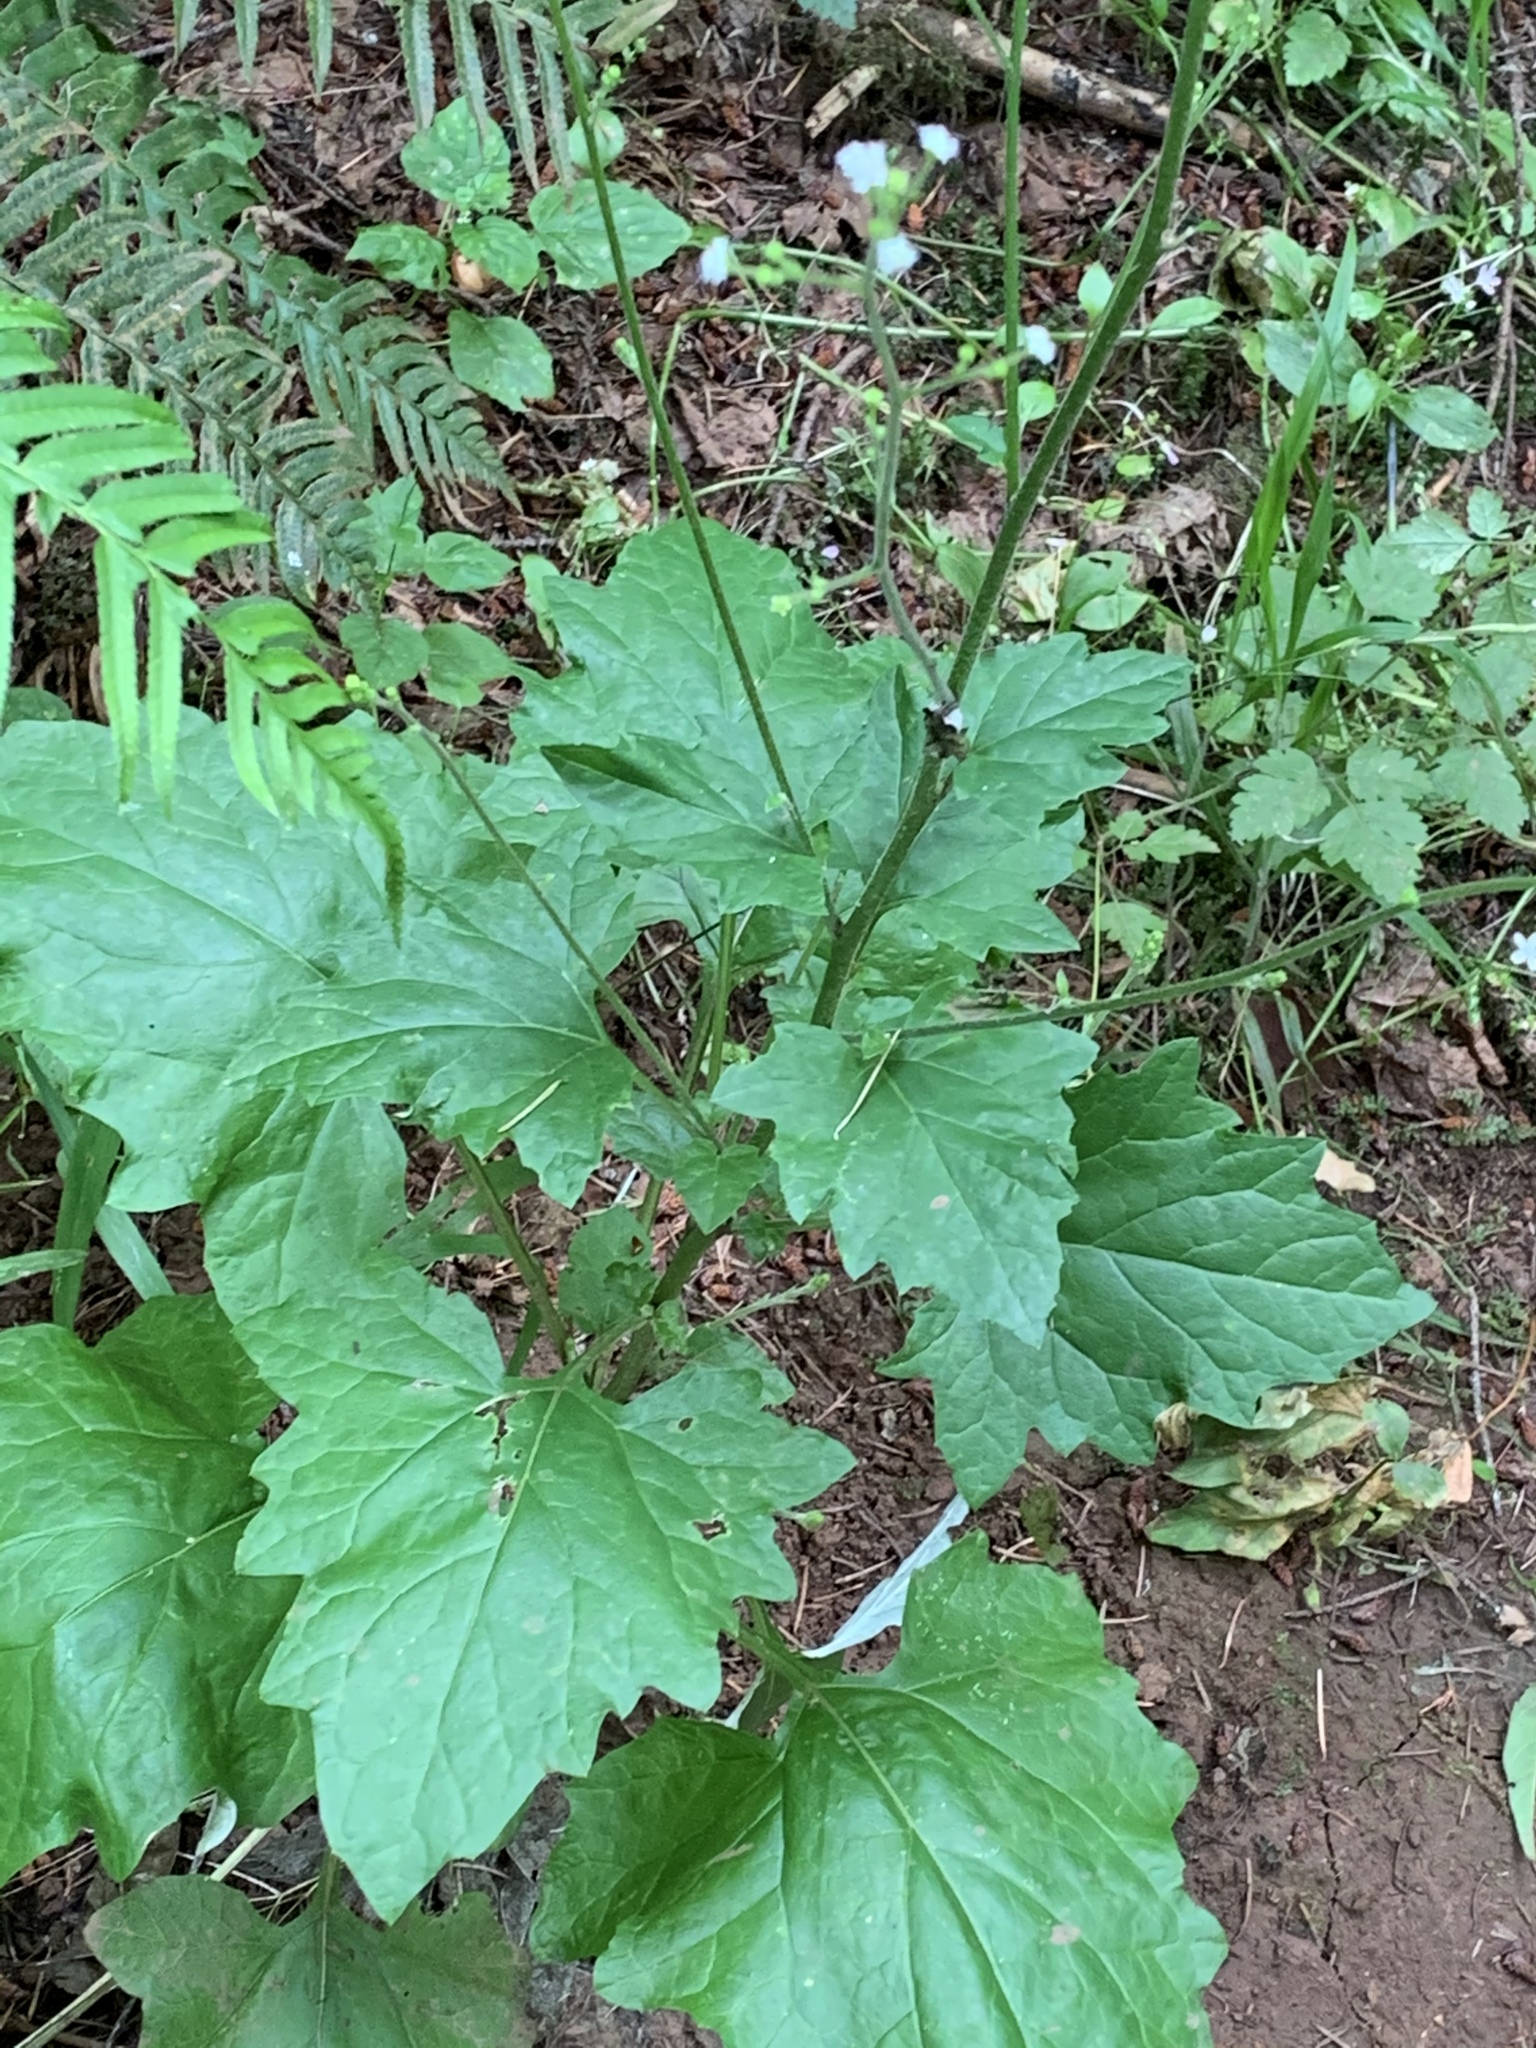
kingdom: Plantae
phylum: Tracheophyta
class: Magnoliopsida
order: Asterales
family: Asteraceae
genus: Adenocaulon
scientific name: Adenocaulon bicolor
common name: Trailplant
